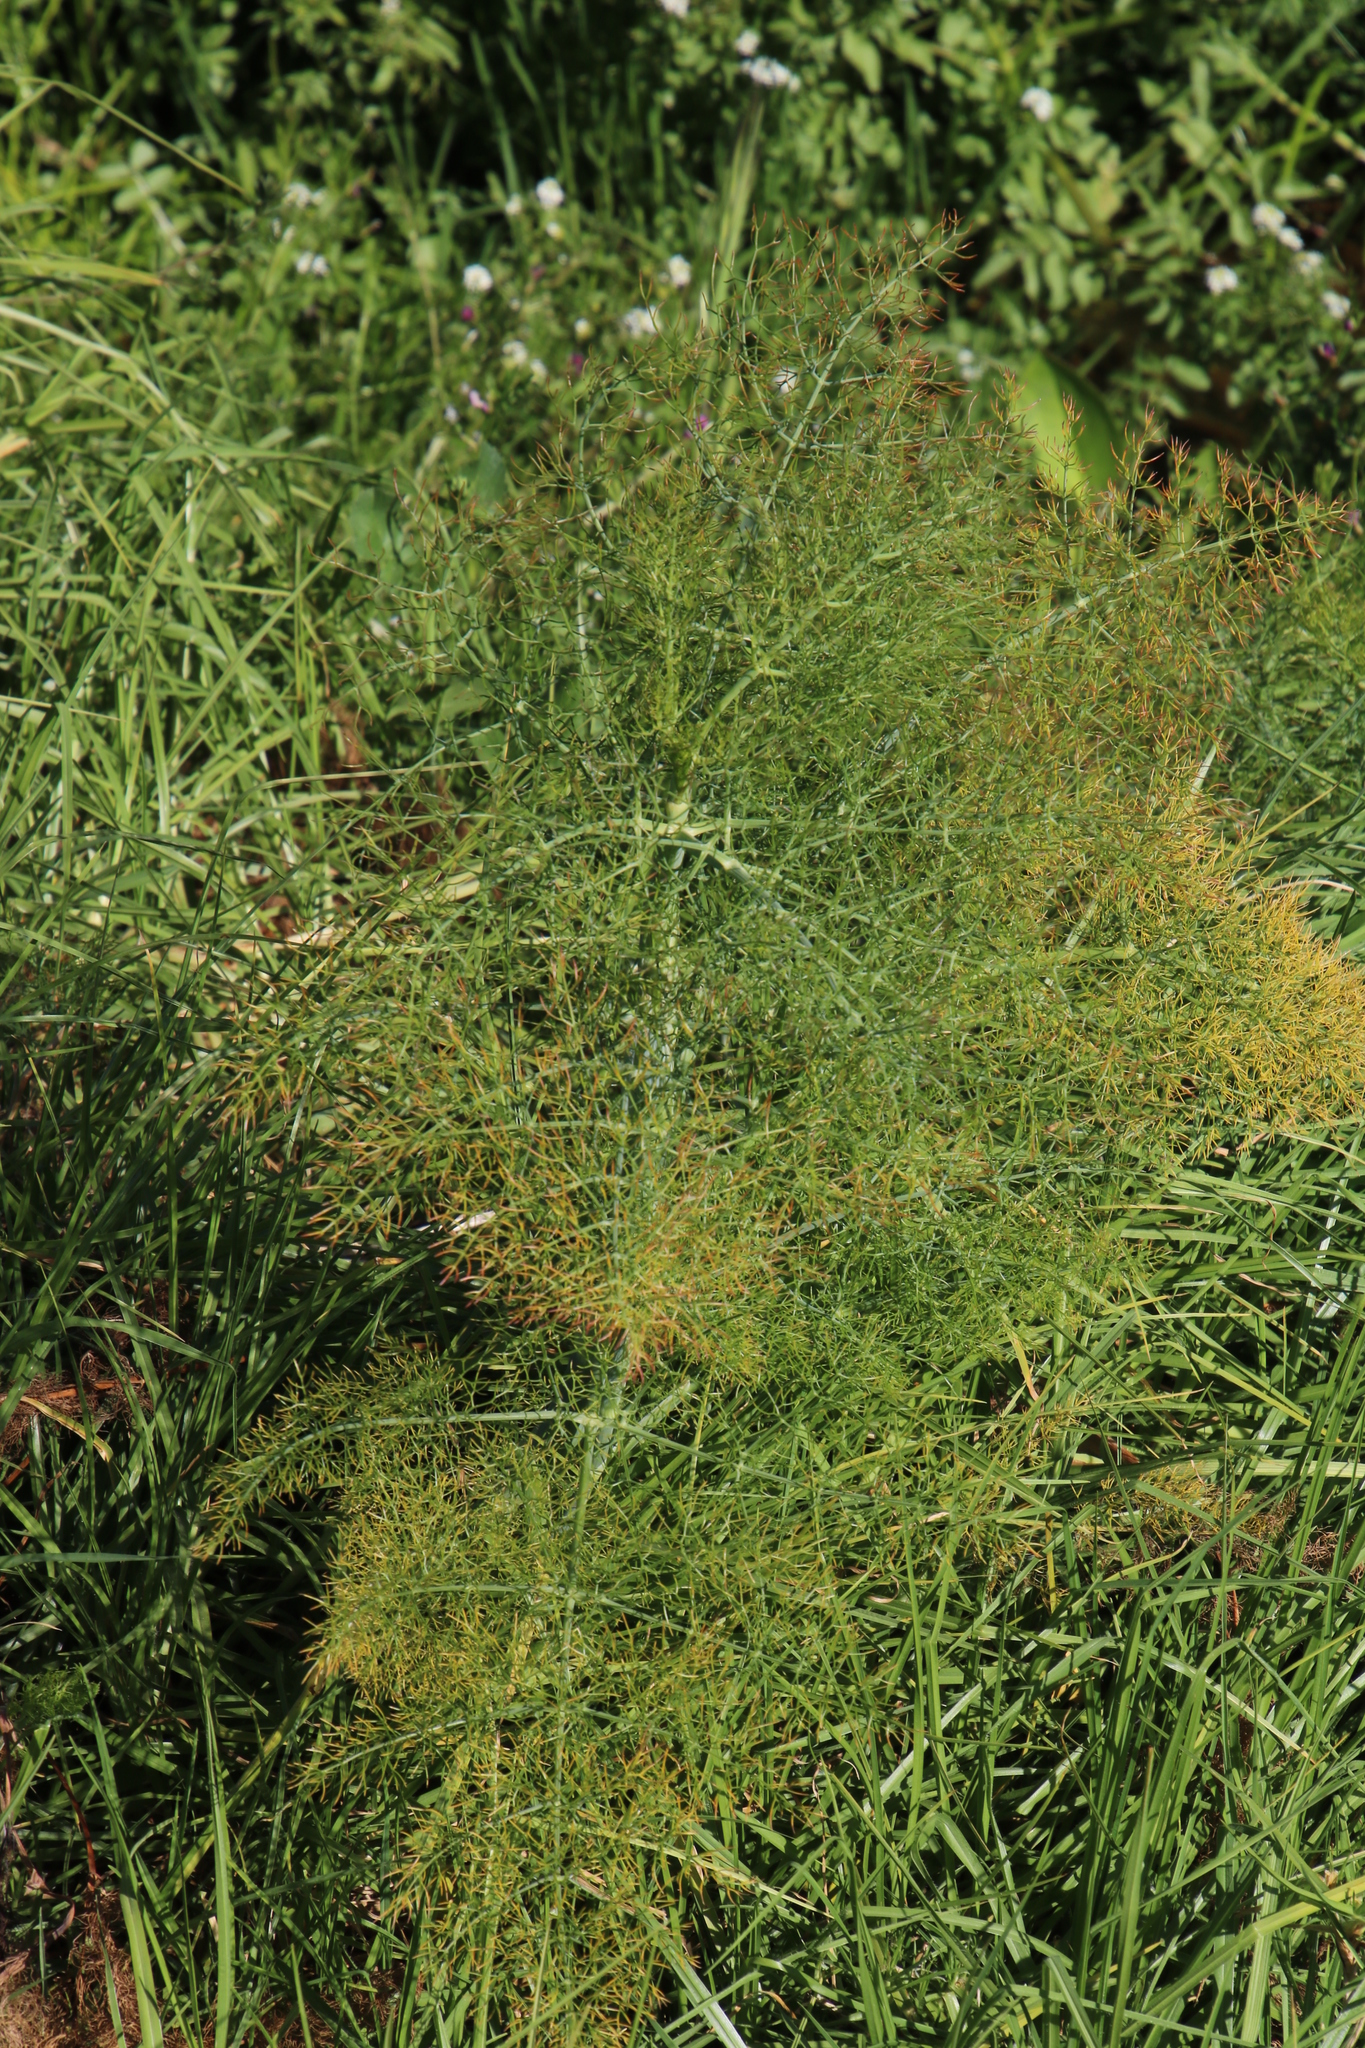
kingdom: Plantae
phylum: Tracheophyta
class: Magnoliopsida
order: Apiales
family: Apiaceae
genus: Foeniculum
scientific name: Foeniculum vulgare
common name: Fennel
